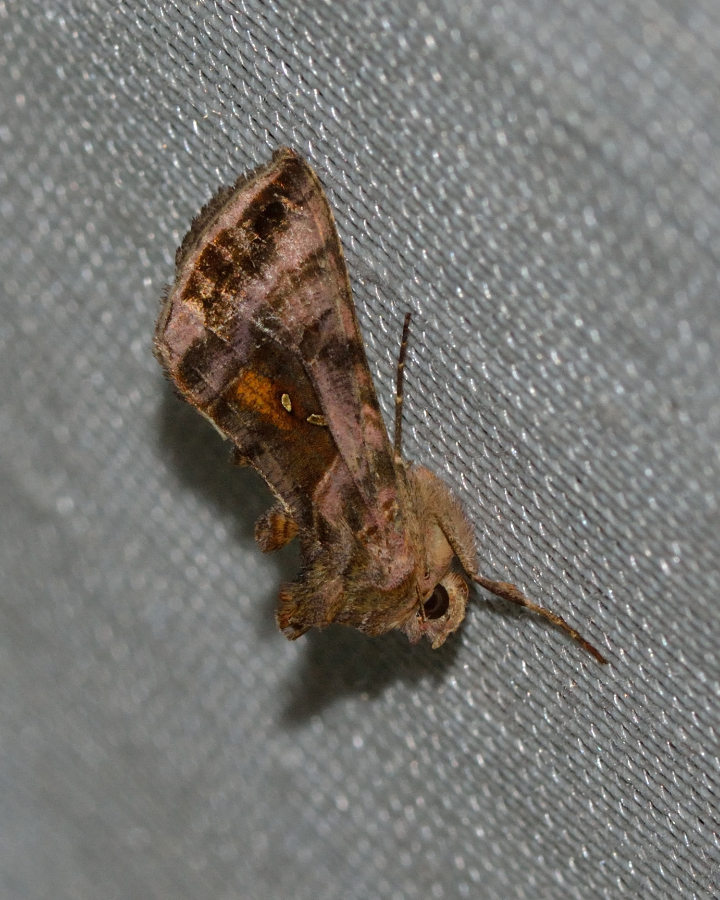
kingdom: Animalia
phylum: Arthropoda
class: Insecta
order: Lepidoptera
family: Noctuidae
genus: Autographa
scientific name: Autographa jota
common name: Plain golden y
